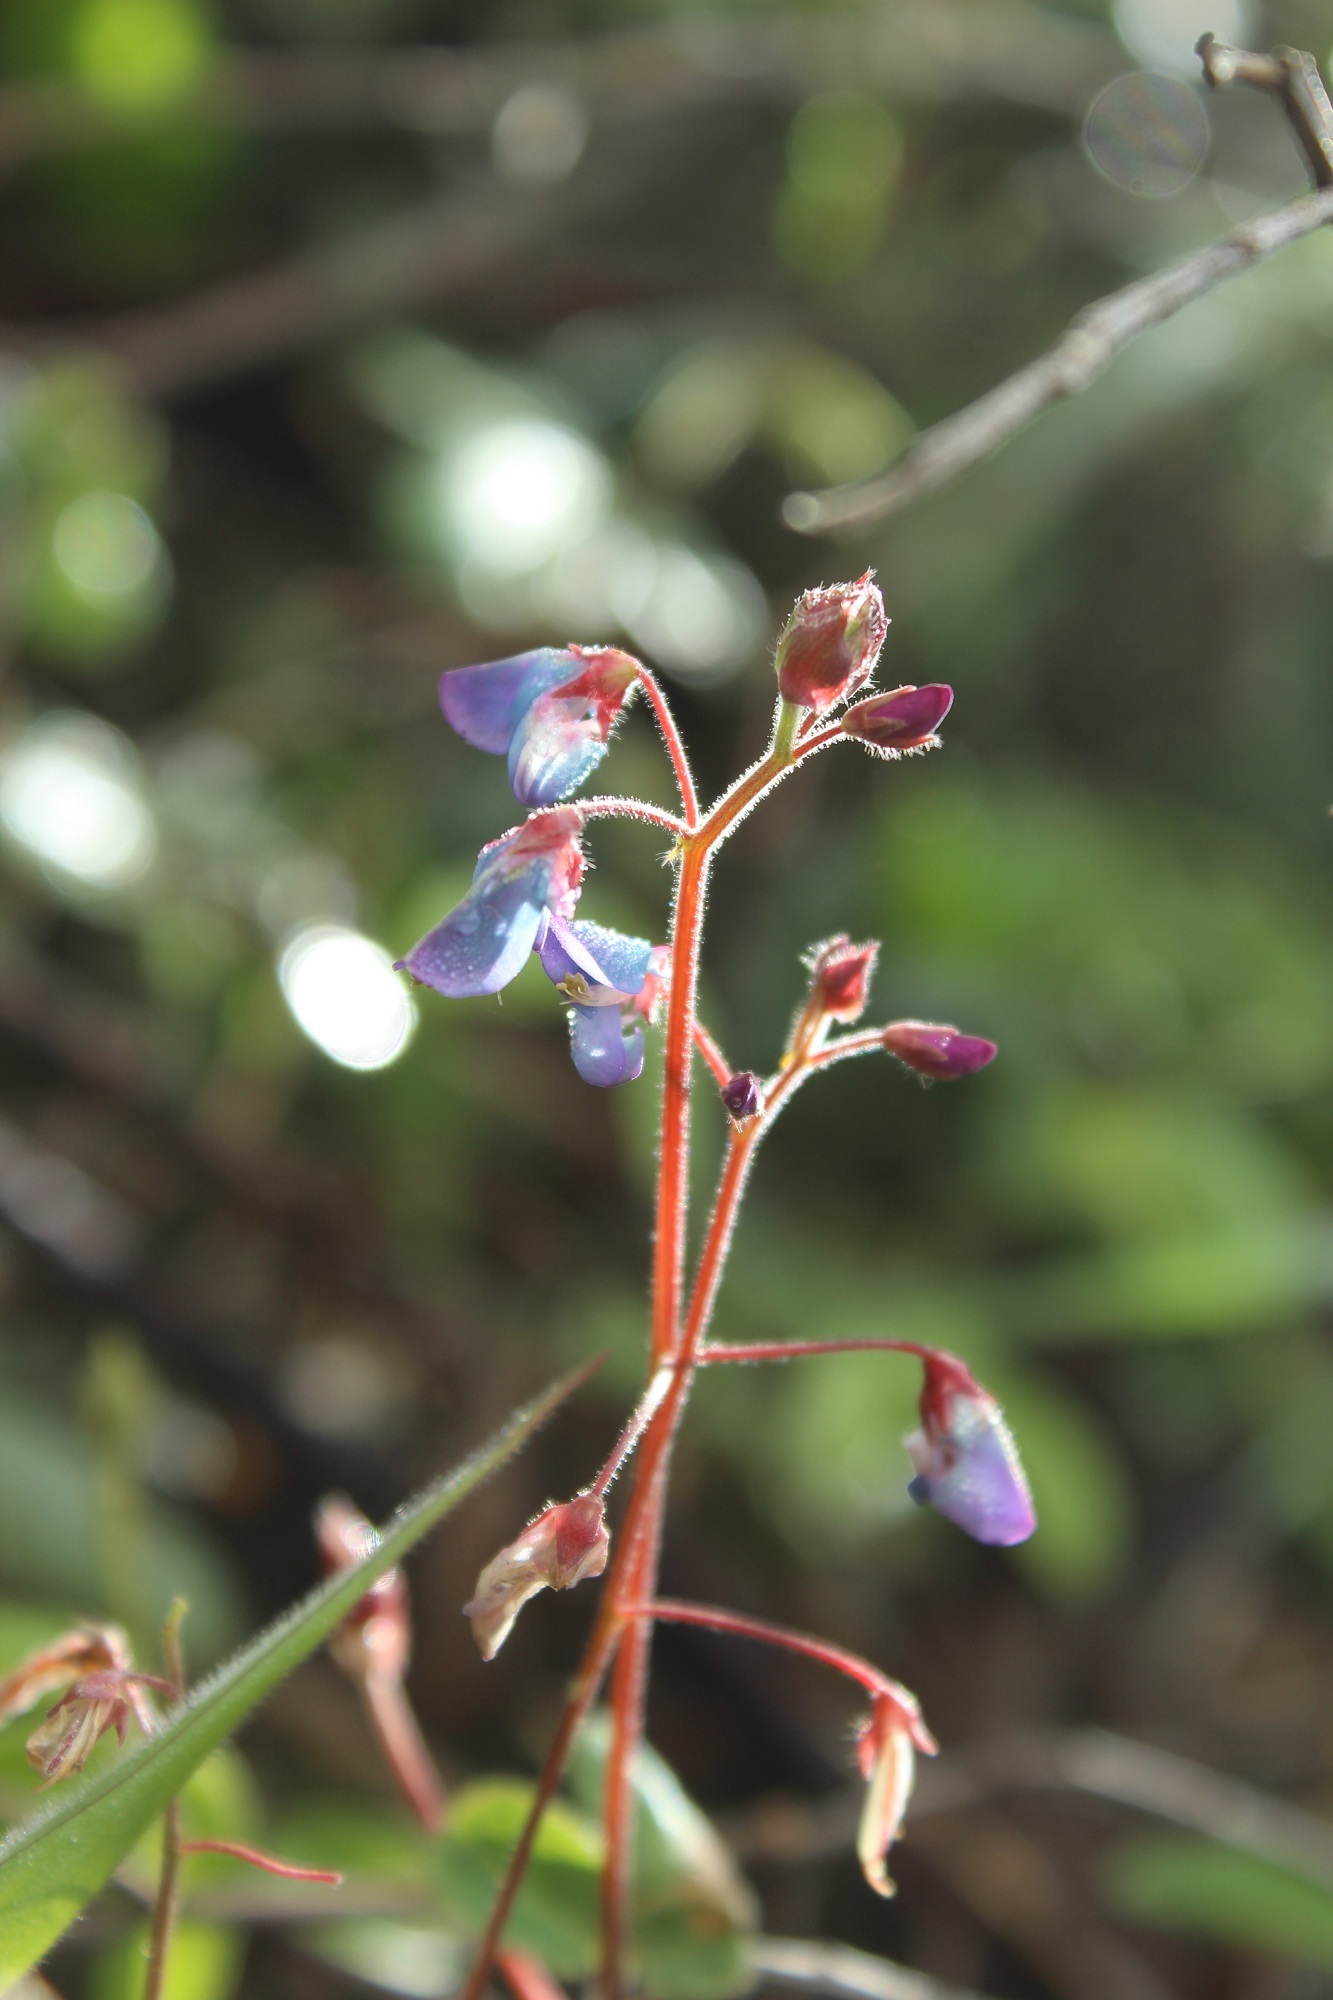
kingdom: Plantae
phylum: Tracheophyta
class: Magnoliopsida
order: Fabales
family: Fabaceae
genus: Desmodium
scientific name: Desmodium molliculum
